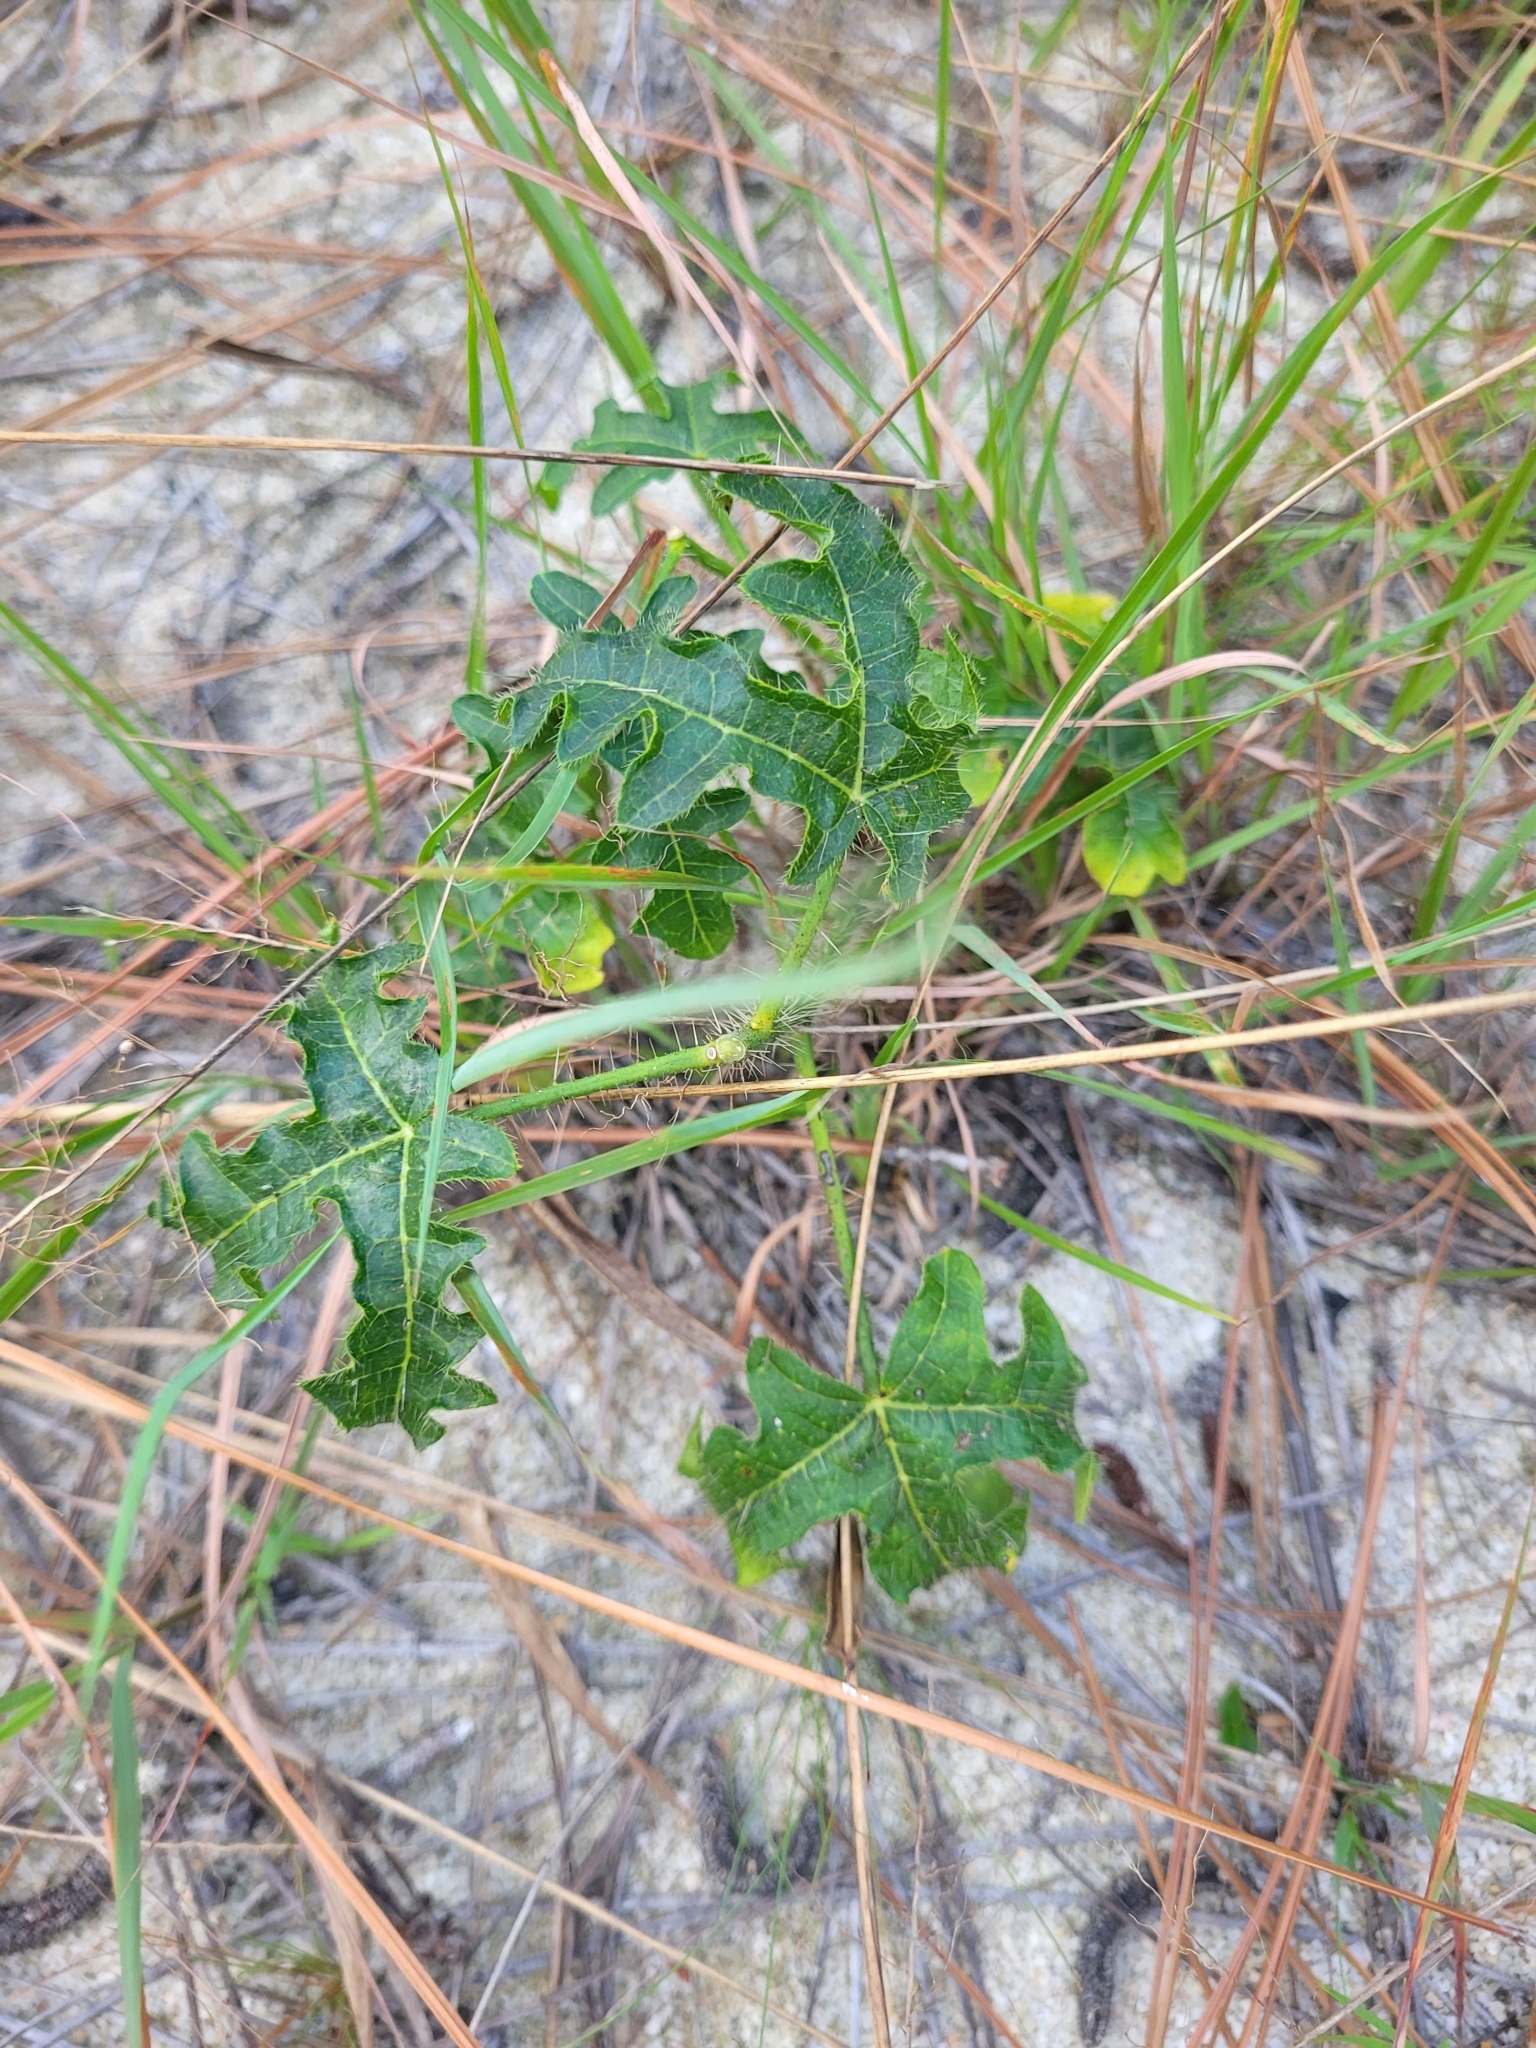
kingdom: Plantae
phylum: Tracheophyta
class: Magnoliopsida
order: Malpighiales
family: Euphorbiaceae
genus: Cnidoscolus
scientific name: Cnidoscolus stimulosus
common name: Bull-nettle
